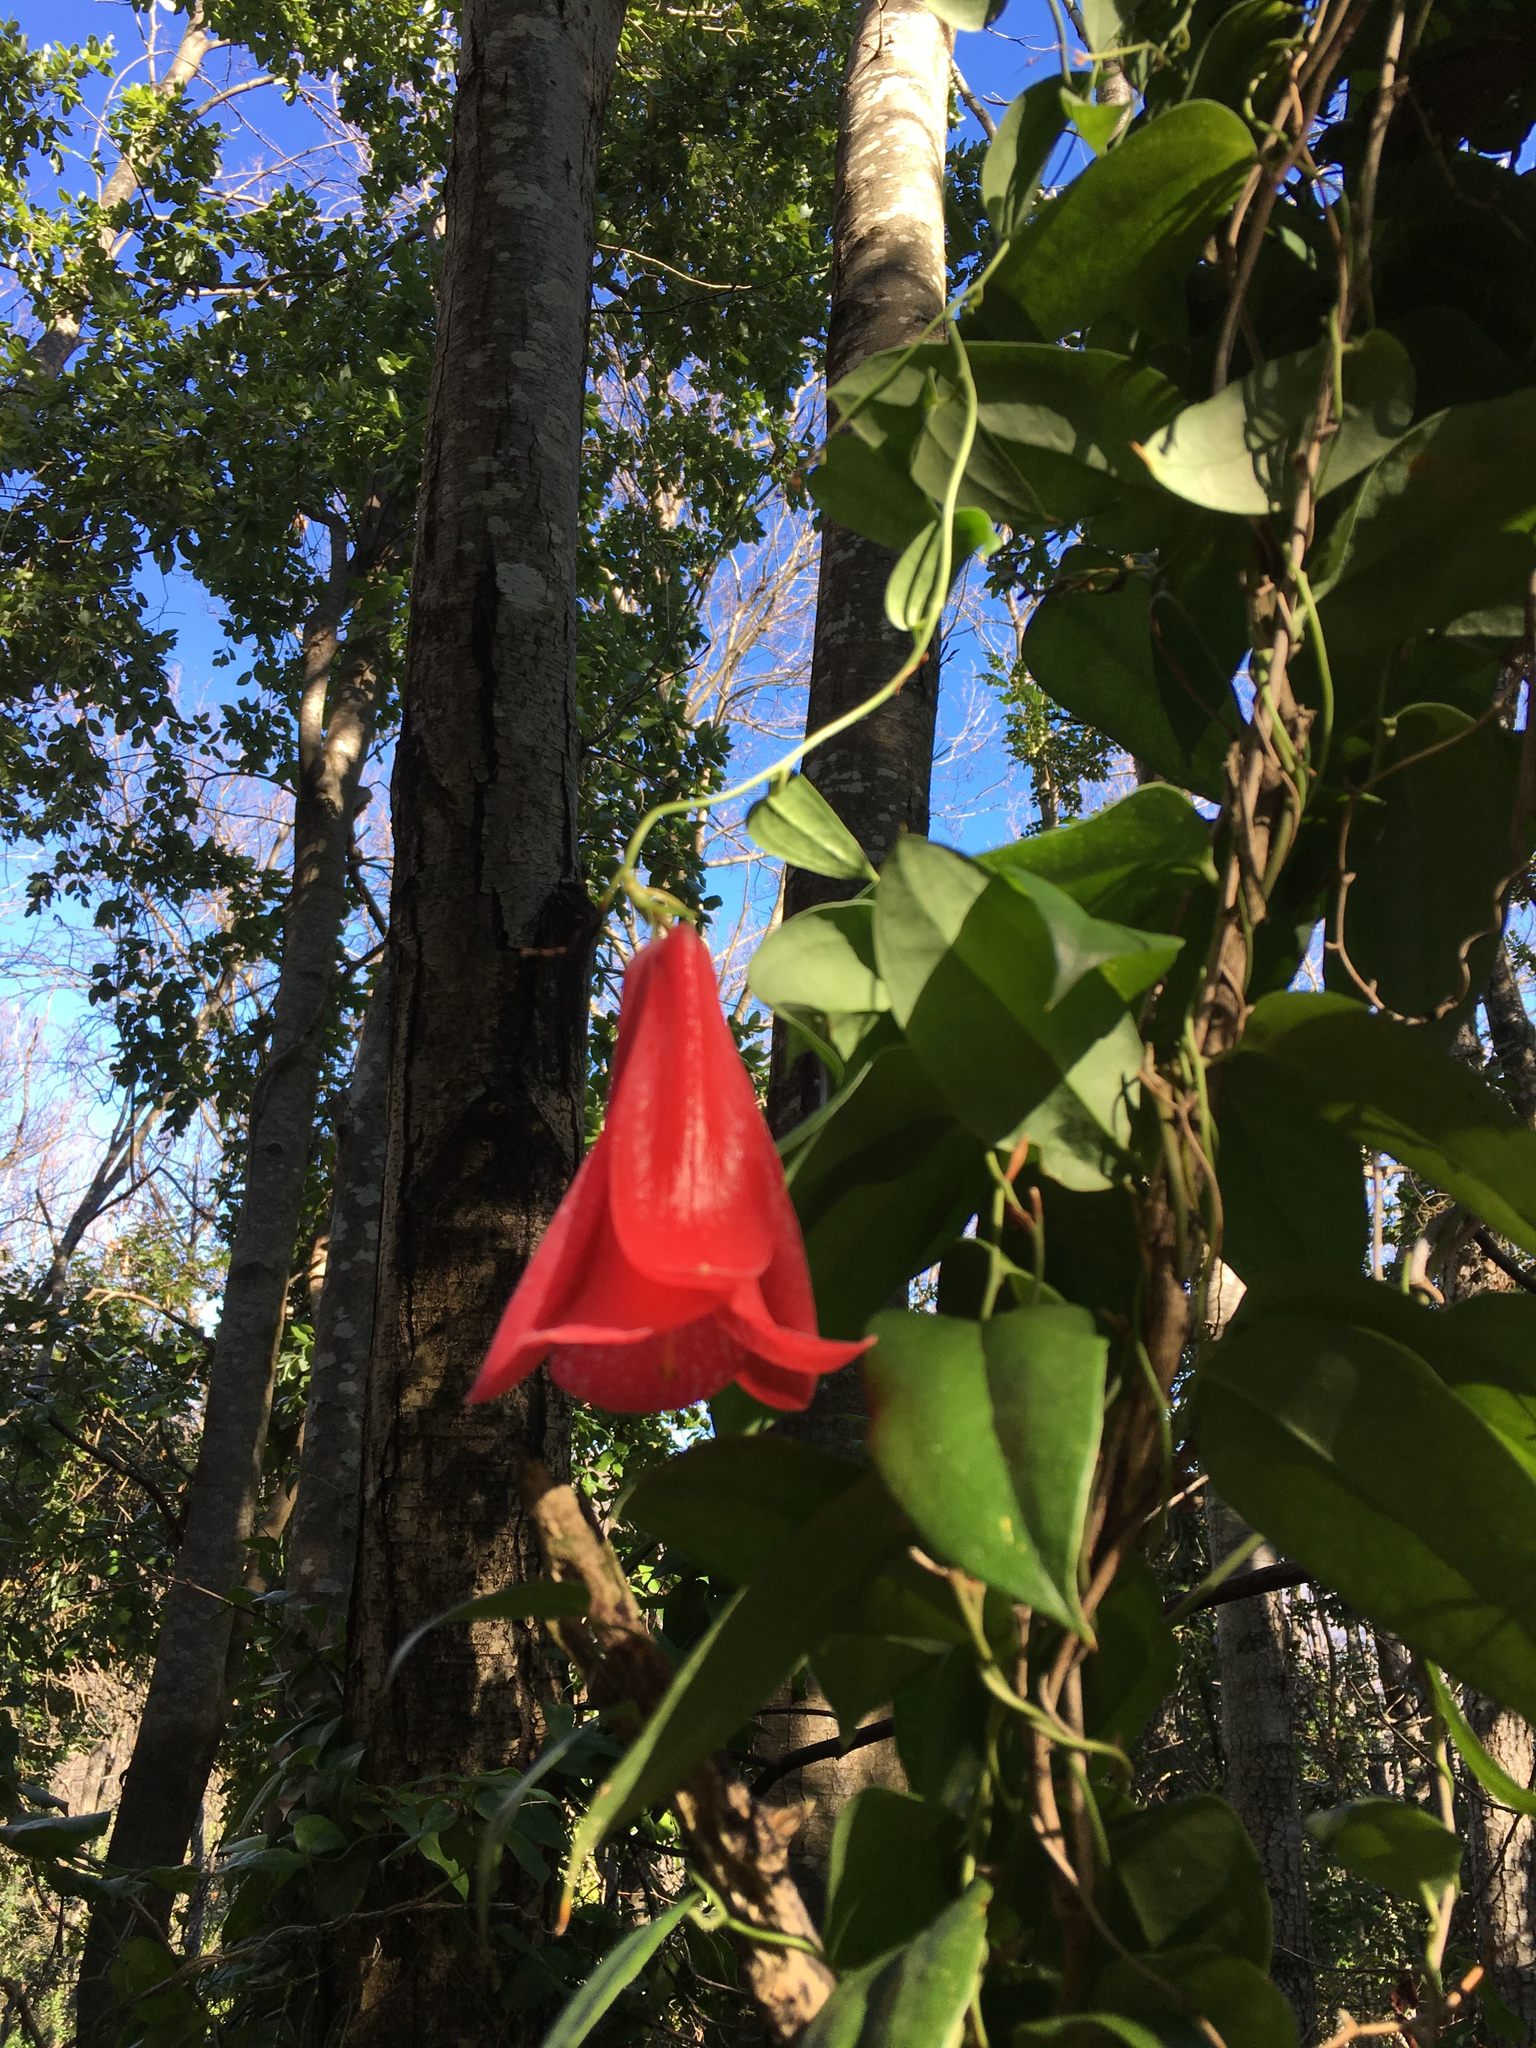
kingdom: Plantae
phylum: Tracheophyta
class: Liliopsida
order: Liliales
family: Philesiaceae
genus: Lapageria
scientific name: Lapageria rosea
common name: Chilean-bellflower
